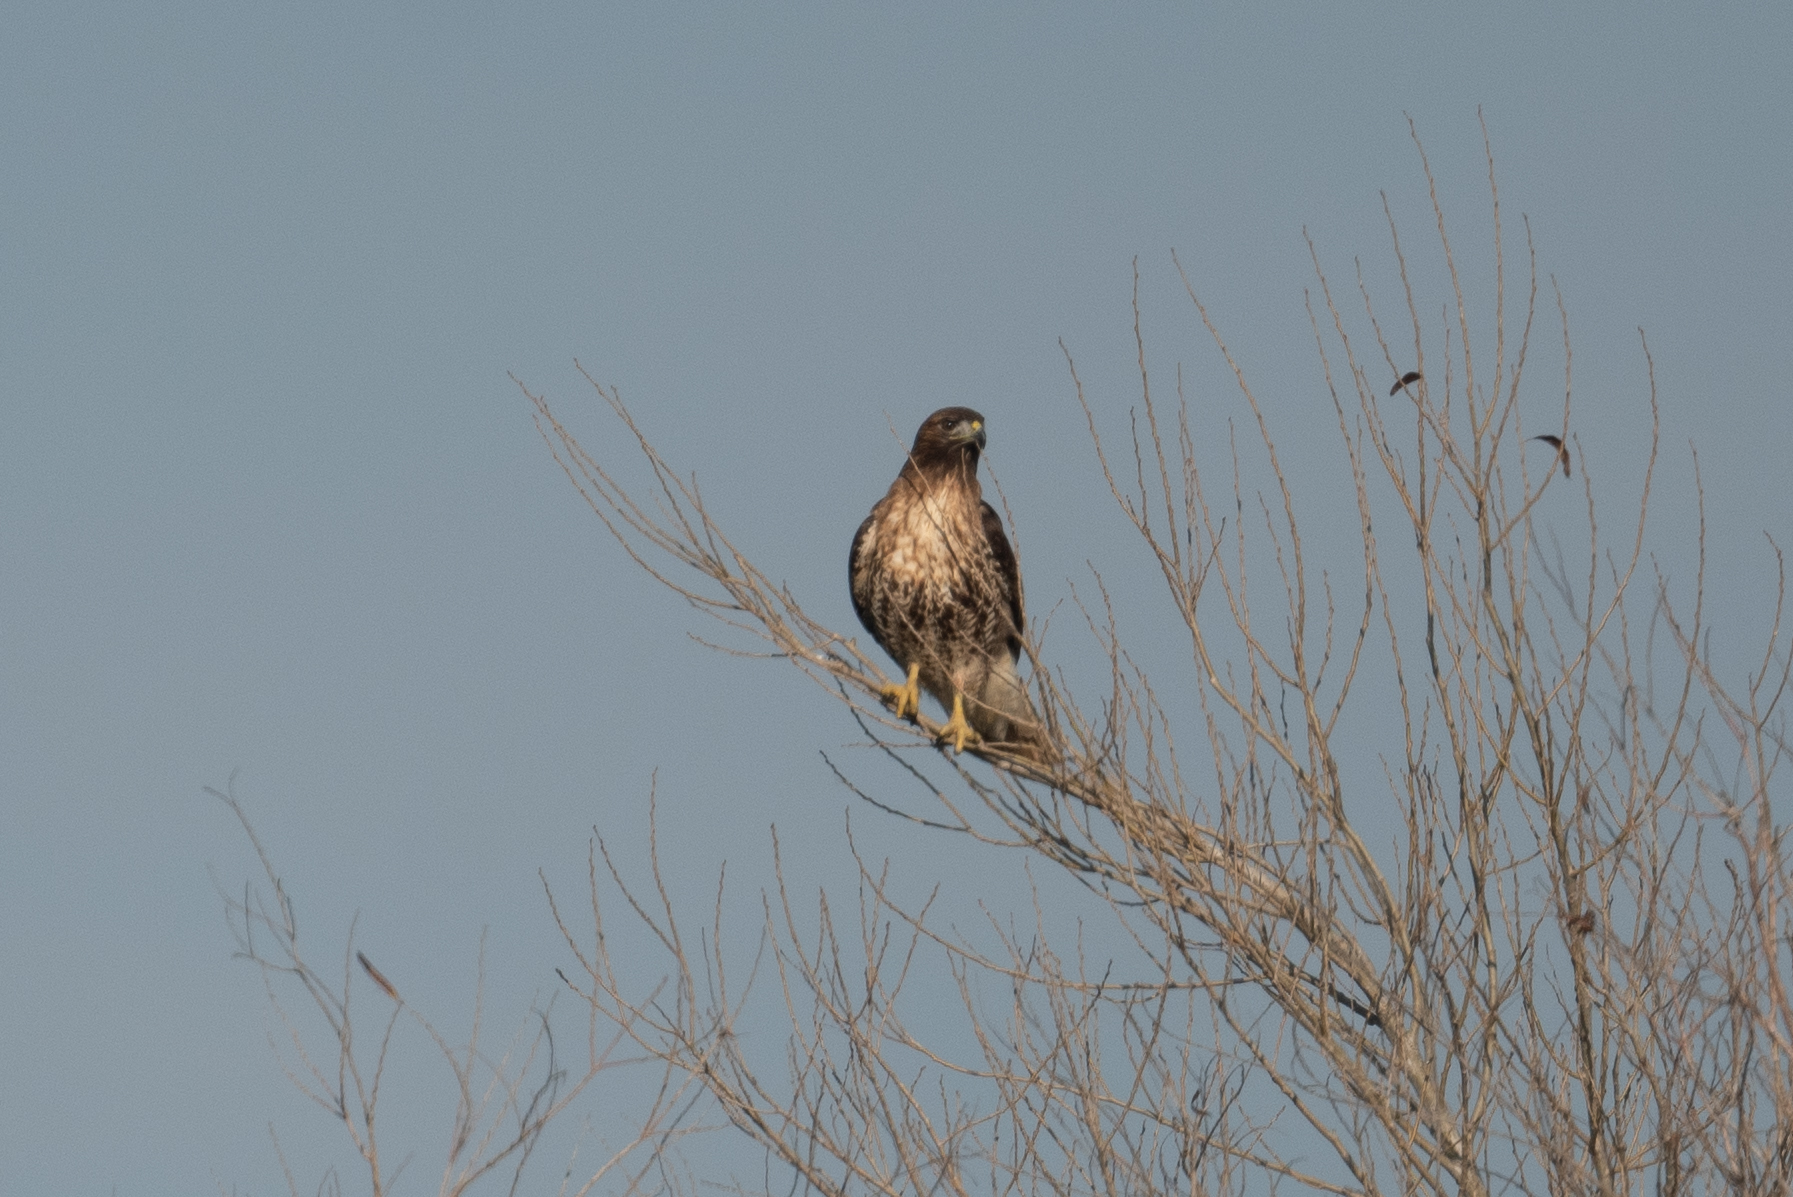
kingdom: Animalia
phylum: Chordata
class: Aves
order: Accipitriformes
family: Accipitridae
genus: Buteo
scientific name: Buteo jamaicensis
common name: Red-tailed hawk
